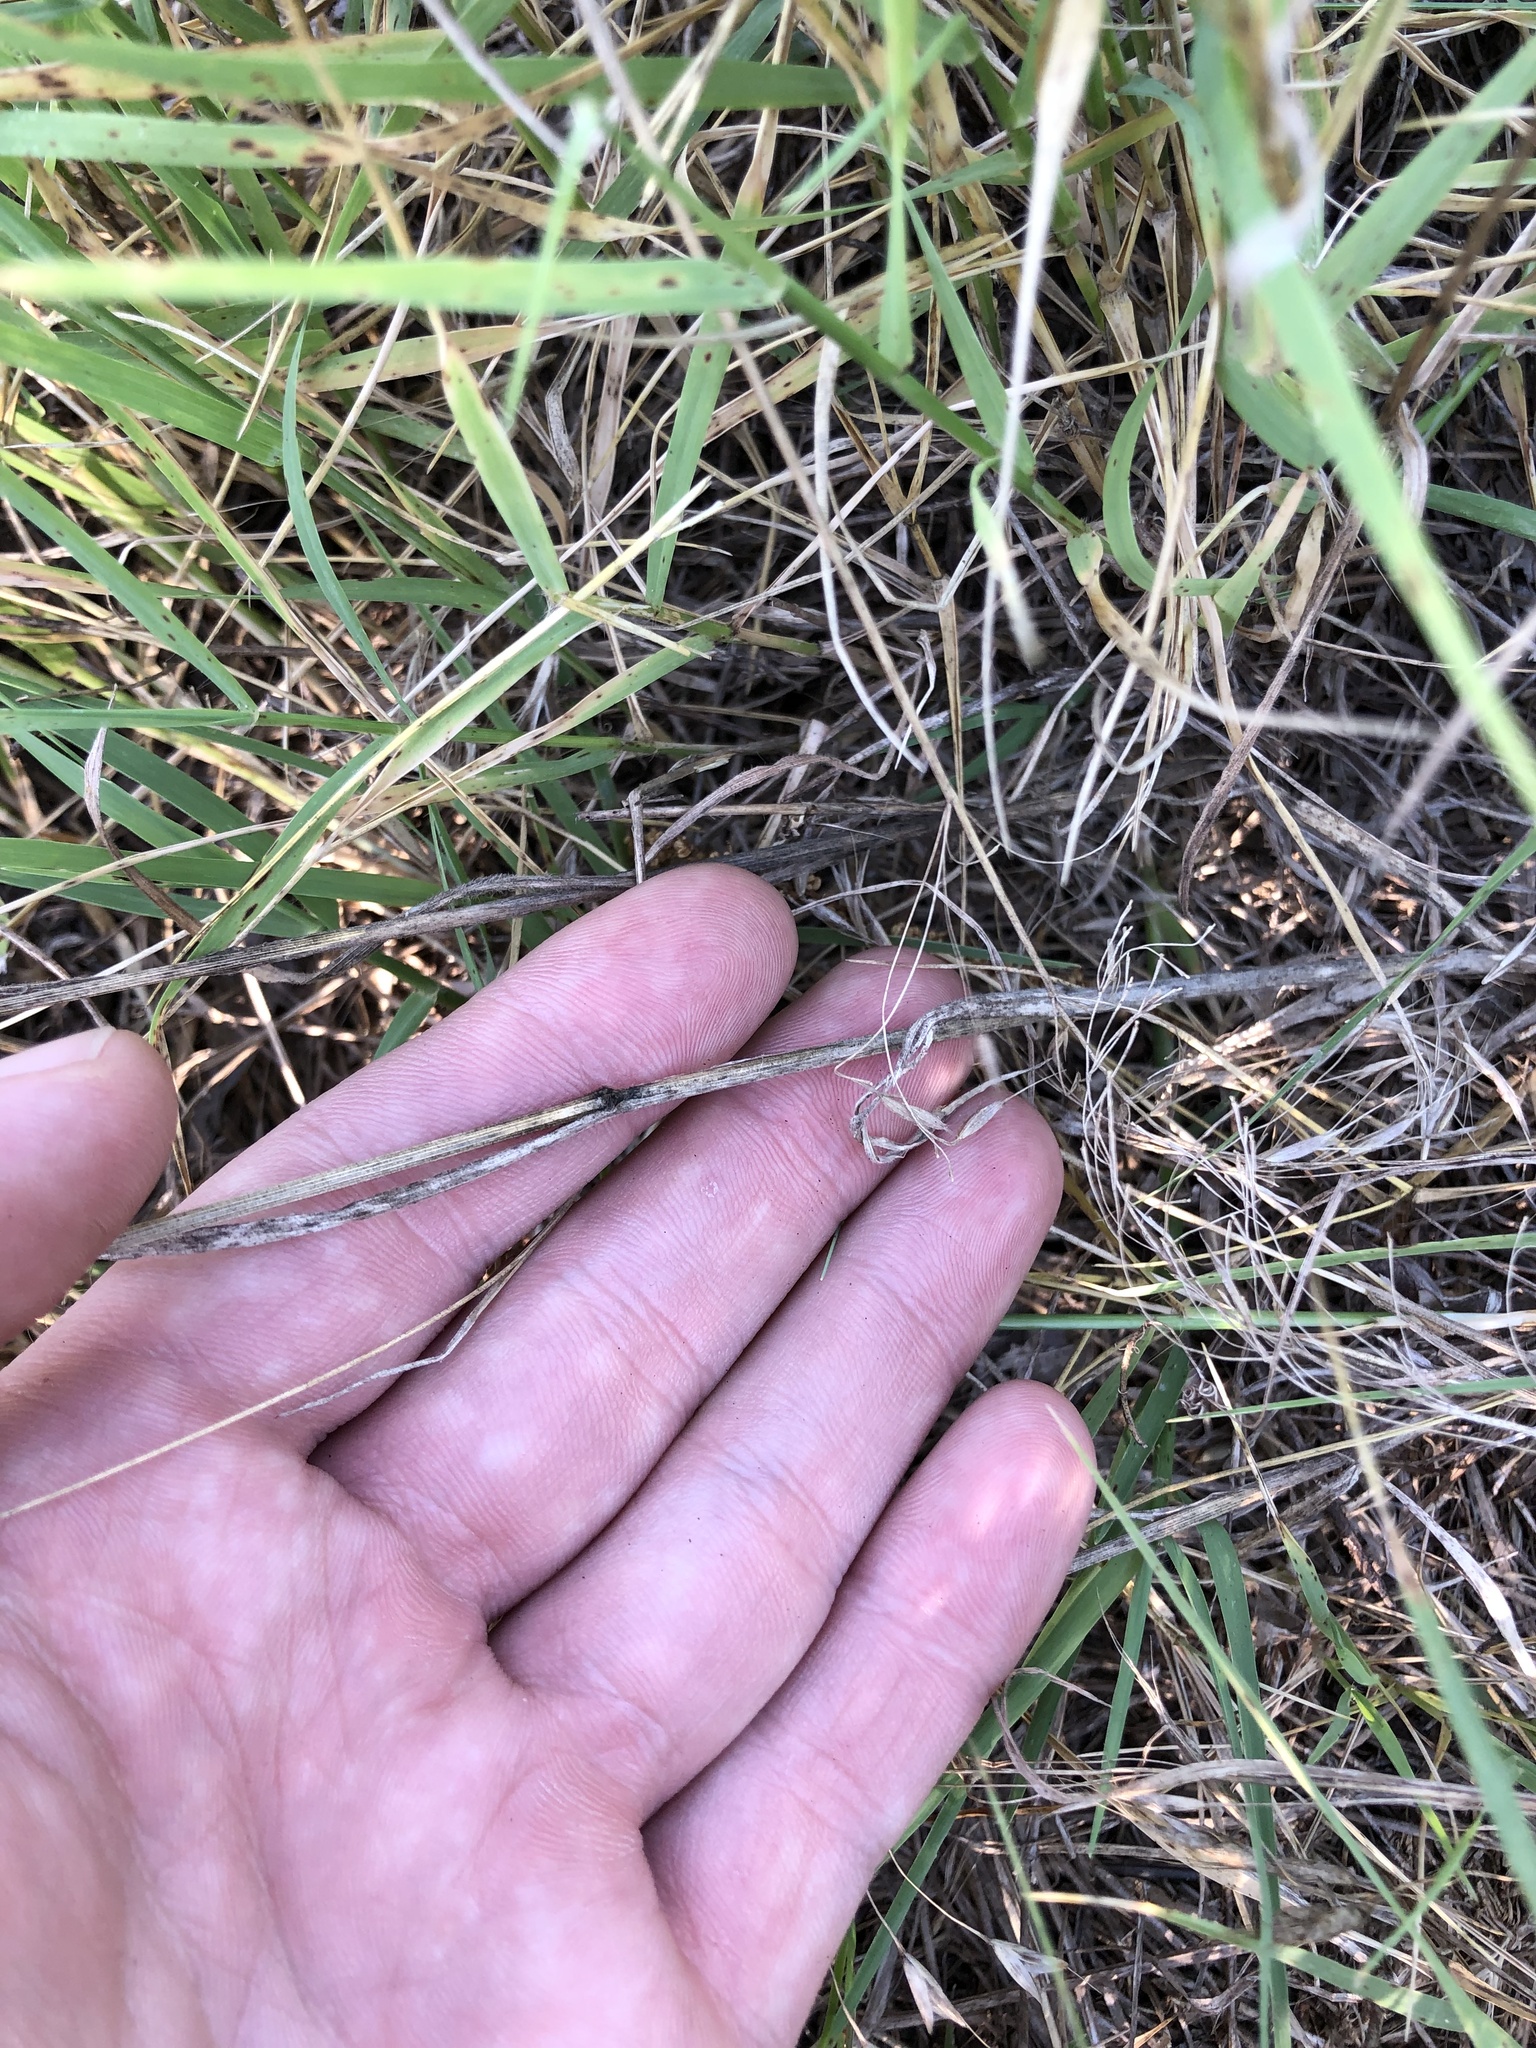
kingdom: Plantae
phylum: Tracheophyta
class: Liliopsida
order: Poales
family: Poaceae
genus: Bromus
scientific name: Bromus tectorum
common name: Cheatgrass
